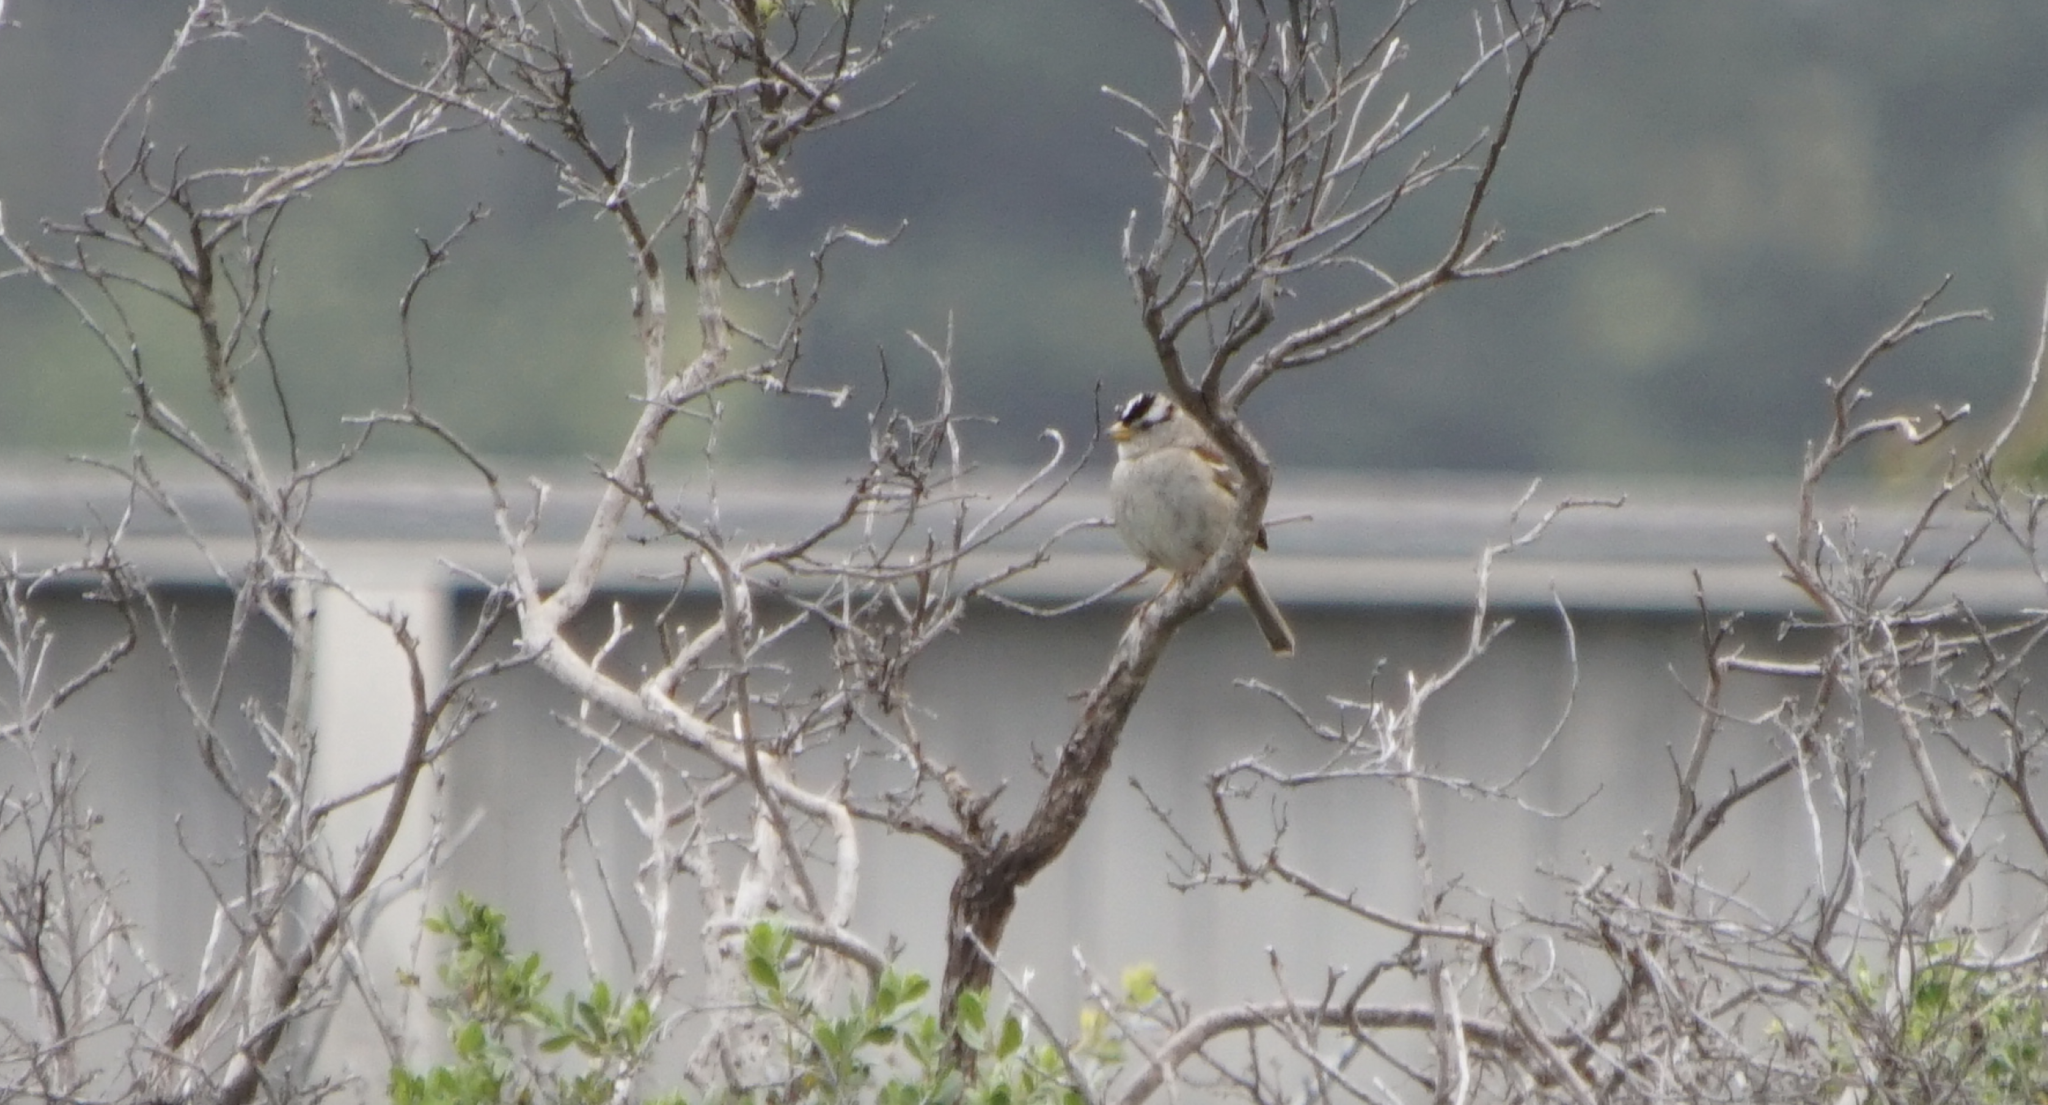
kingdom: Animalia
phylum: Chordata
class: Aves
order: Passeriformes
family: Passerellidae
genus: Zonotrichia
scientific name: Zonotrichia leucophrys
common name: White-crowned sparrow
